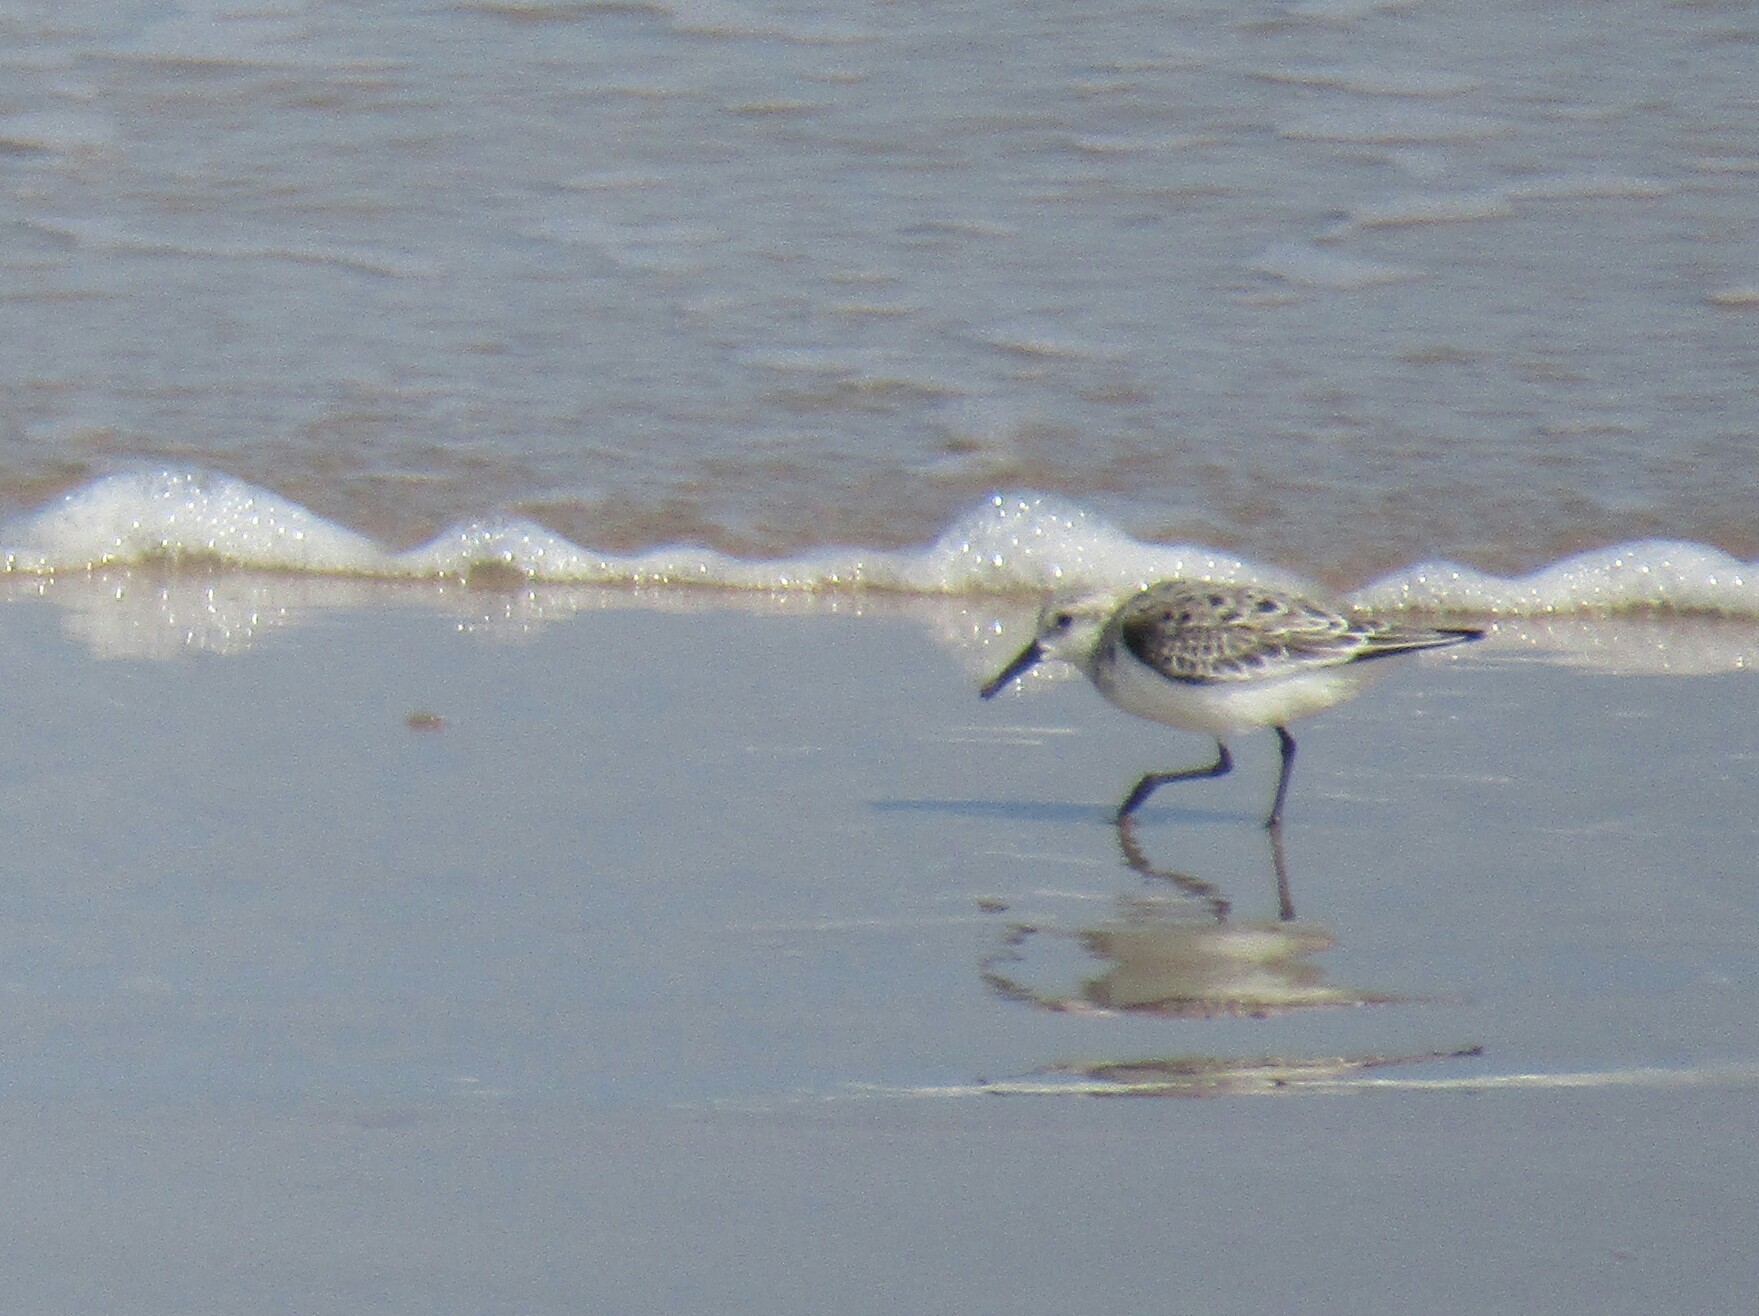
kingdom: Animalia
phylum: Chordata
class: Aves
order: Charadriiformes
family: Scolopacidae
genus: Calidris
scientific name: Calidris alba
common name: Sanderling
